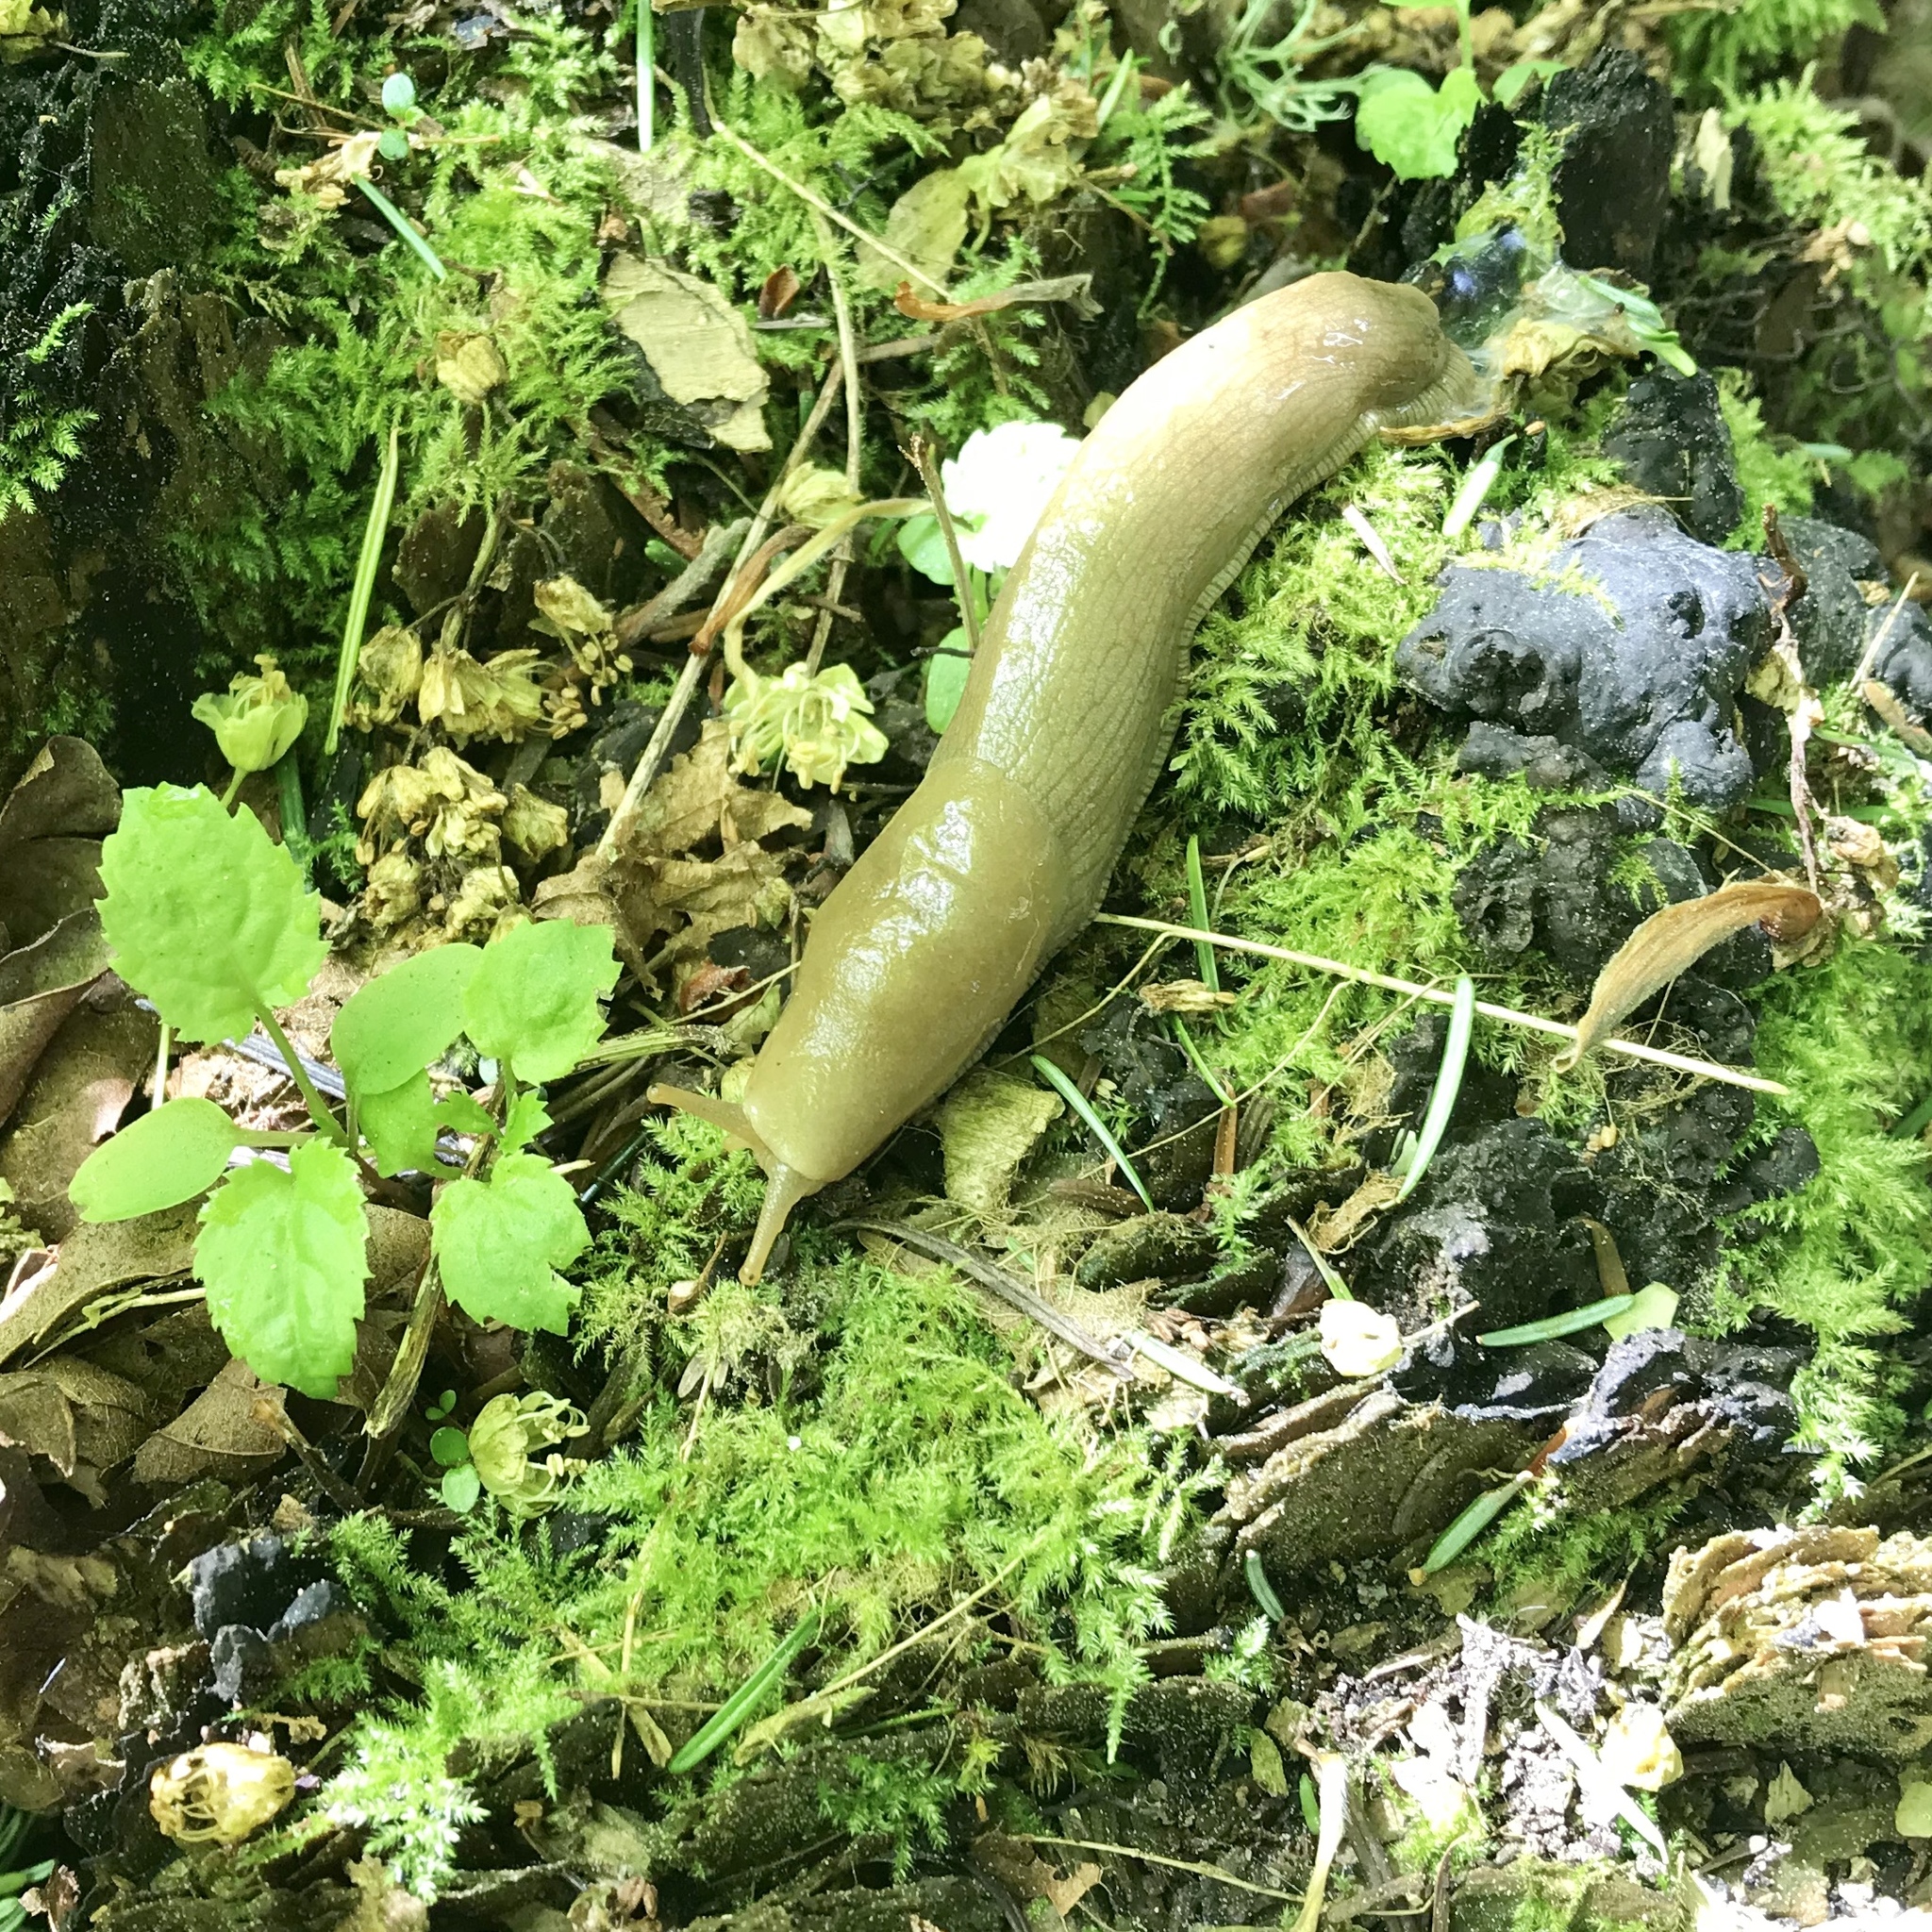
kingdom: Animalia
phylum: Mollusca
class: Gastropoda
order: Stylommatophora
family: Ariolimacidae
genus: Ariolimax
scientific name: Ariolimax columbianus
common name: Pacific banana slug
